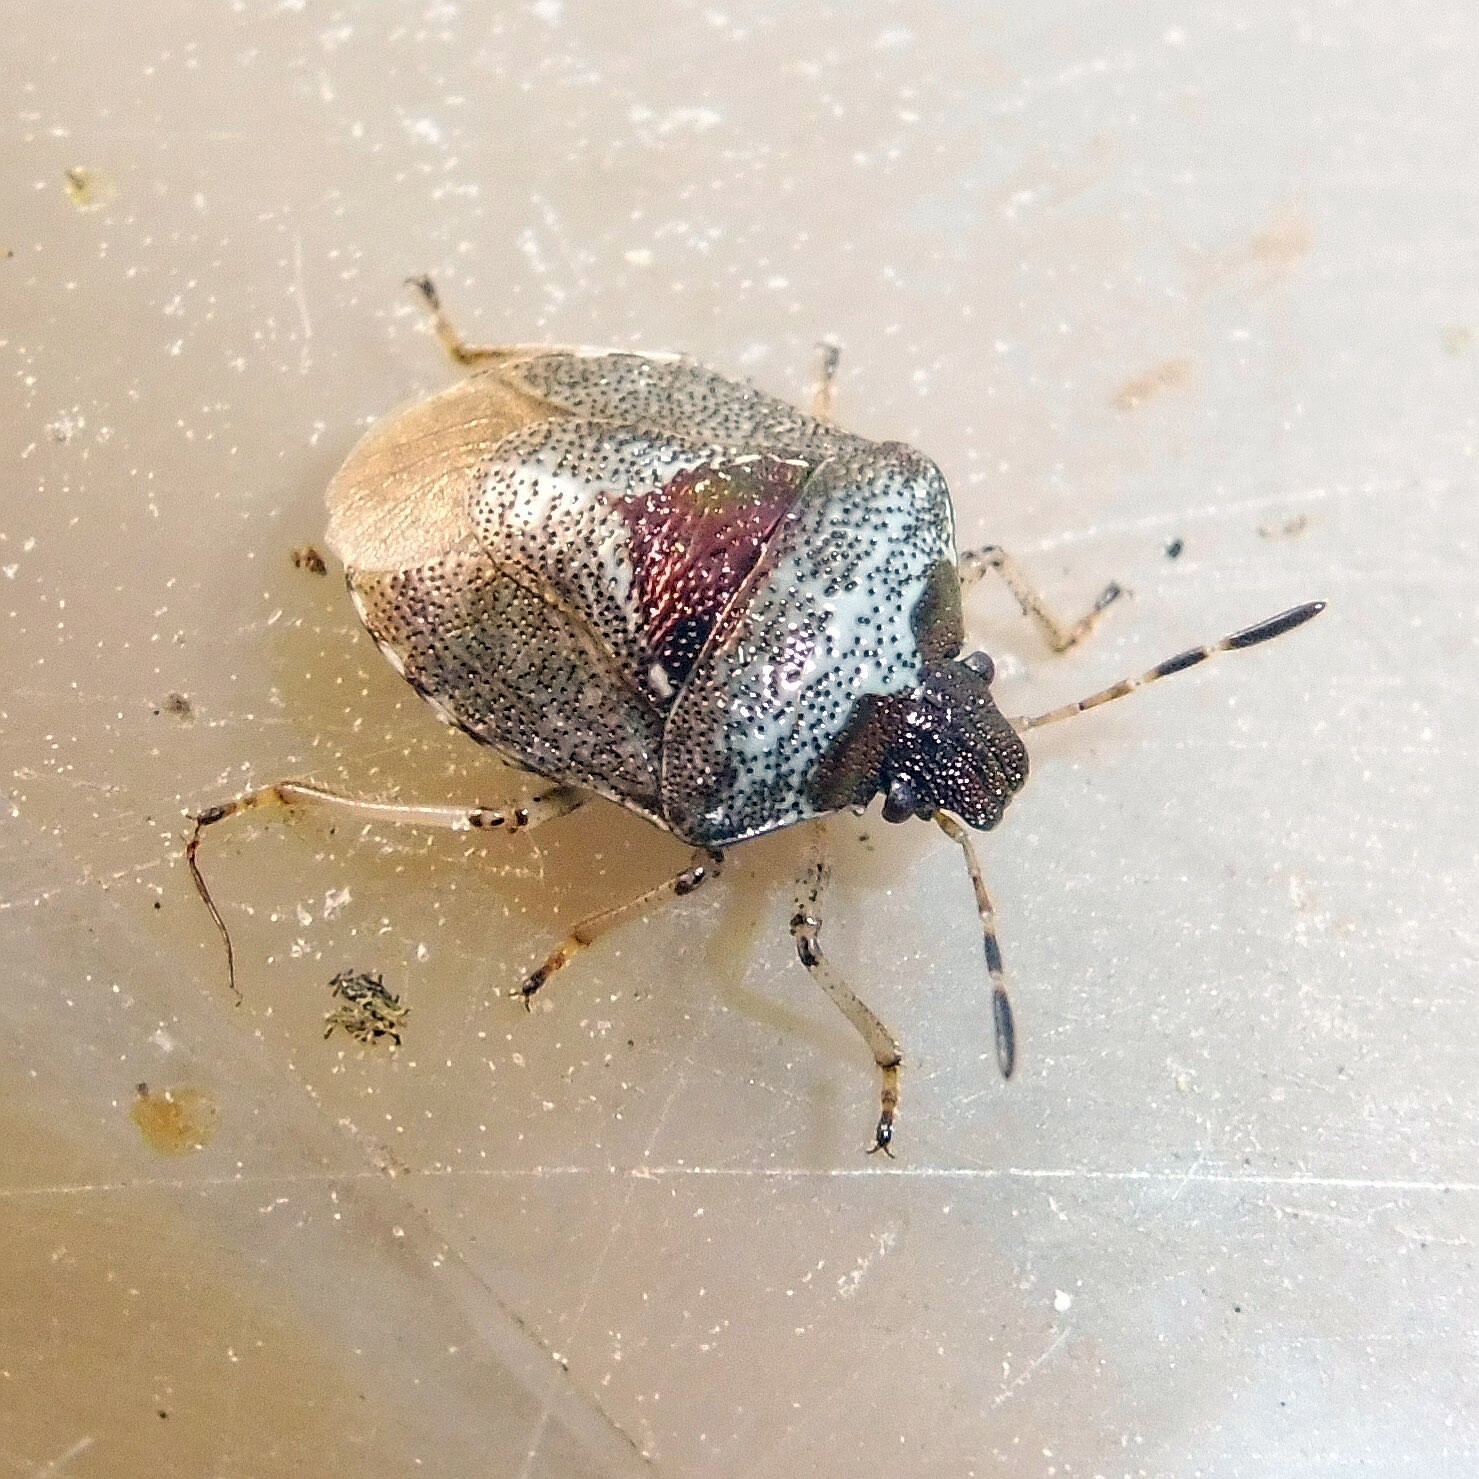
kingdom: Animalia
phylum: Arthropoda
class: Insecta
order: Hemiptera
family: Pentatomidae
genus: Eysarcoris
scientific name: Eysarcoris venustissimus
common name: Woundwort shieldbug
